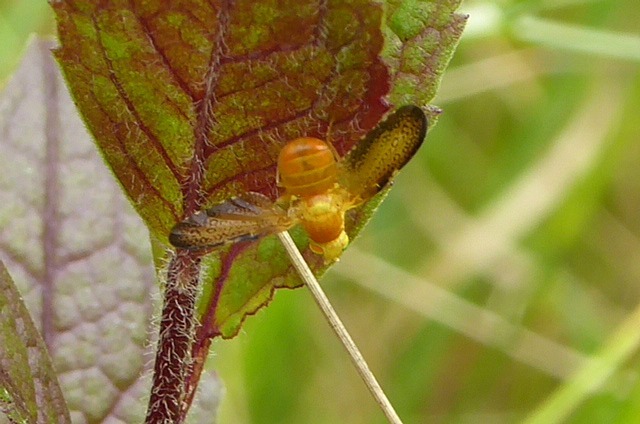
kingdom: Animalia
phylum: Arthropoda
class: Insecta
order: Diptera
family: Tephritidae
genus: Icterica
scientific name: Icterica circinata
